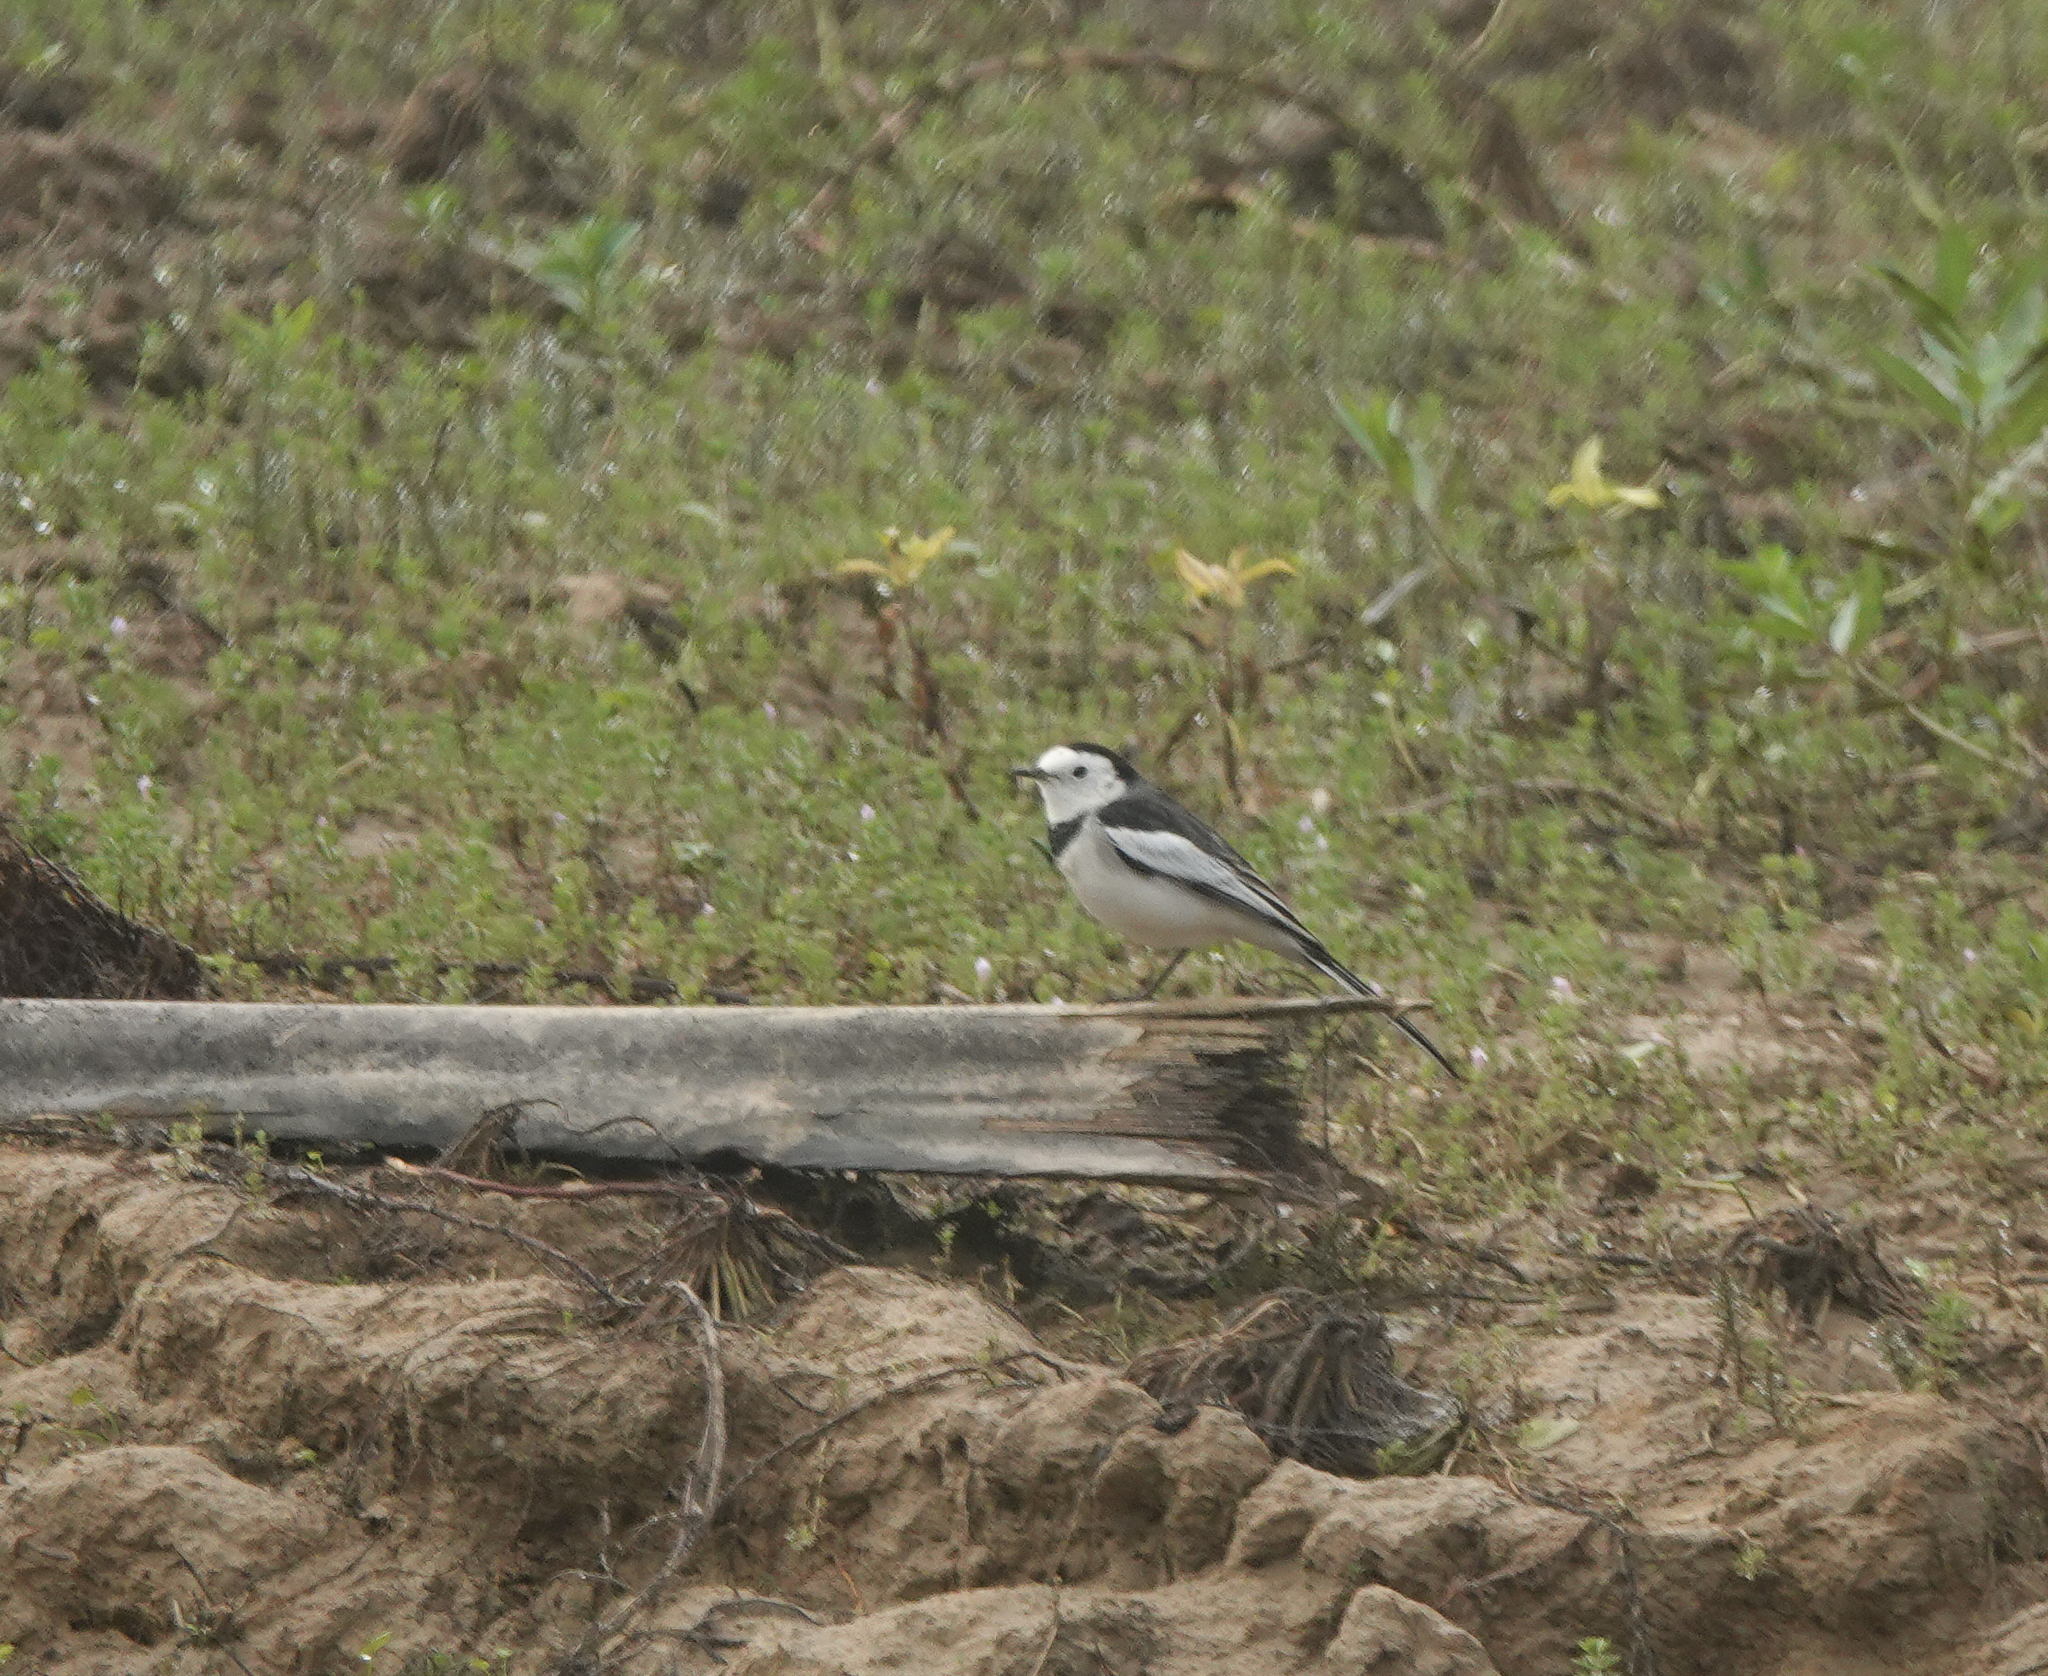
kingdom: Animalia
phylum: Chordata
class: Aves
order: Passeriformes
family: Motacillidae
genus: Motacilla
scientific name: Motacilla alba
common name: White wagtail
